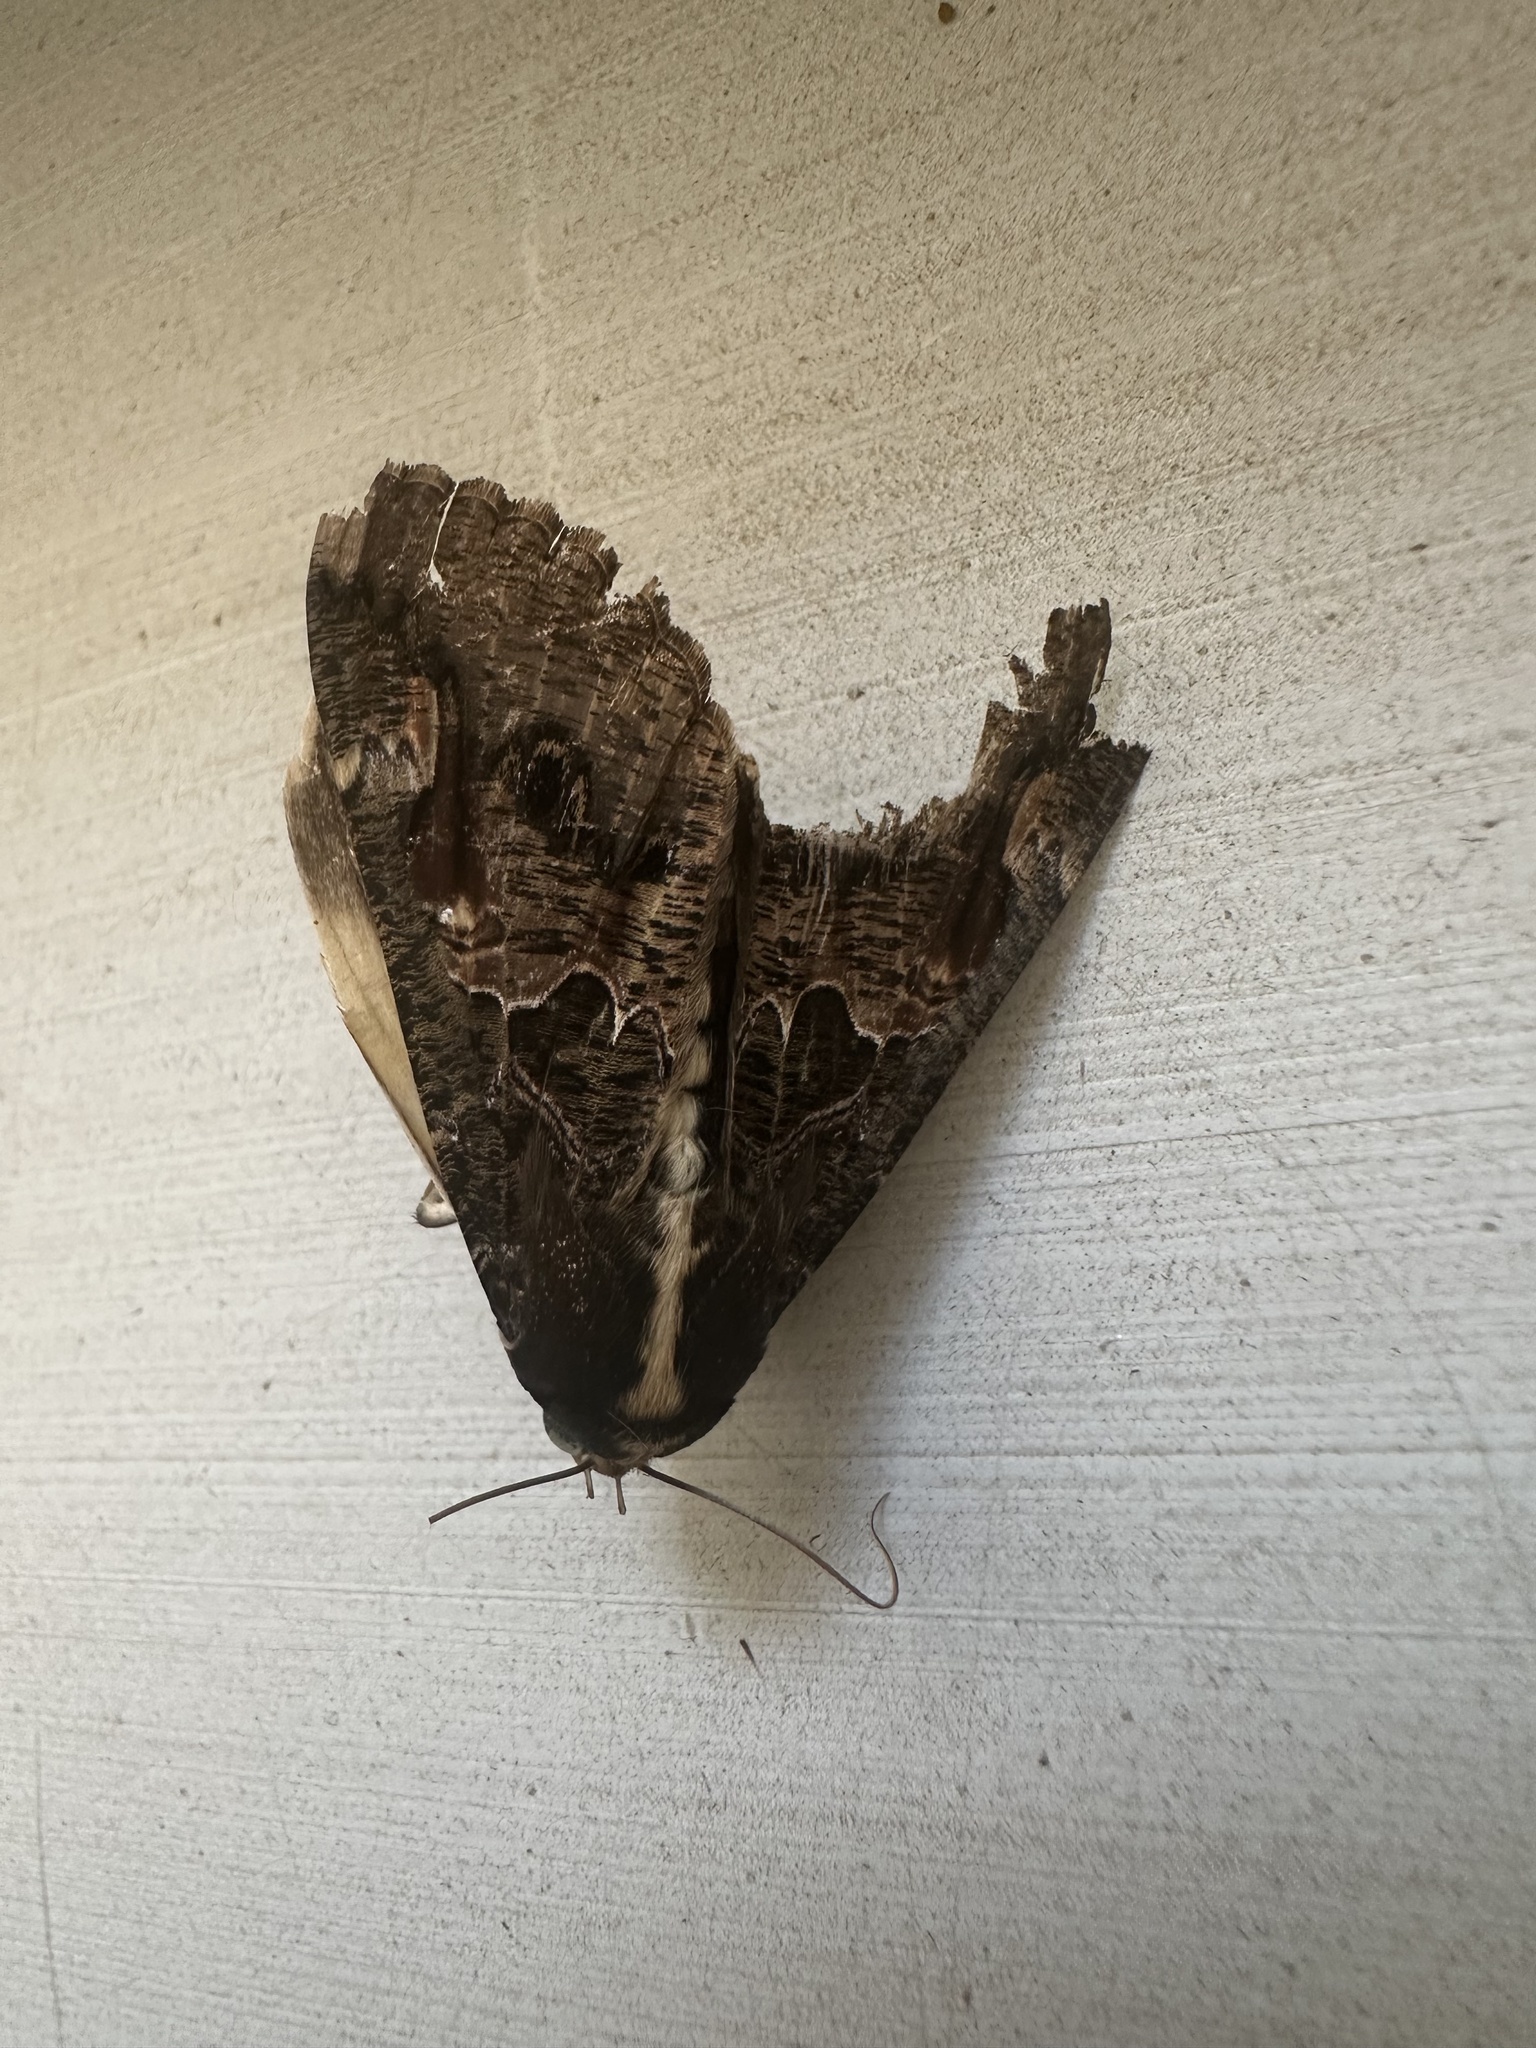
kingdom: Animalia
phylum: Arthropoda
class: Insecta
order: Lepidoptera
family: Erebidae
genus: Sphingomorpha
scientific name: Sphingomorpha chlorea
